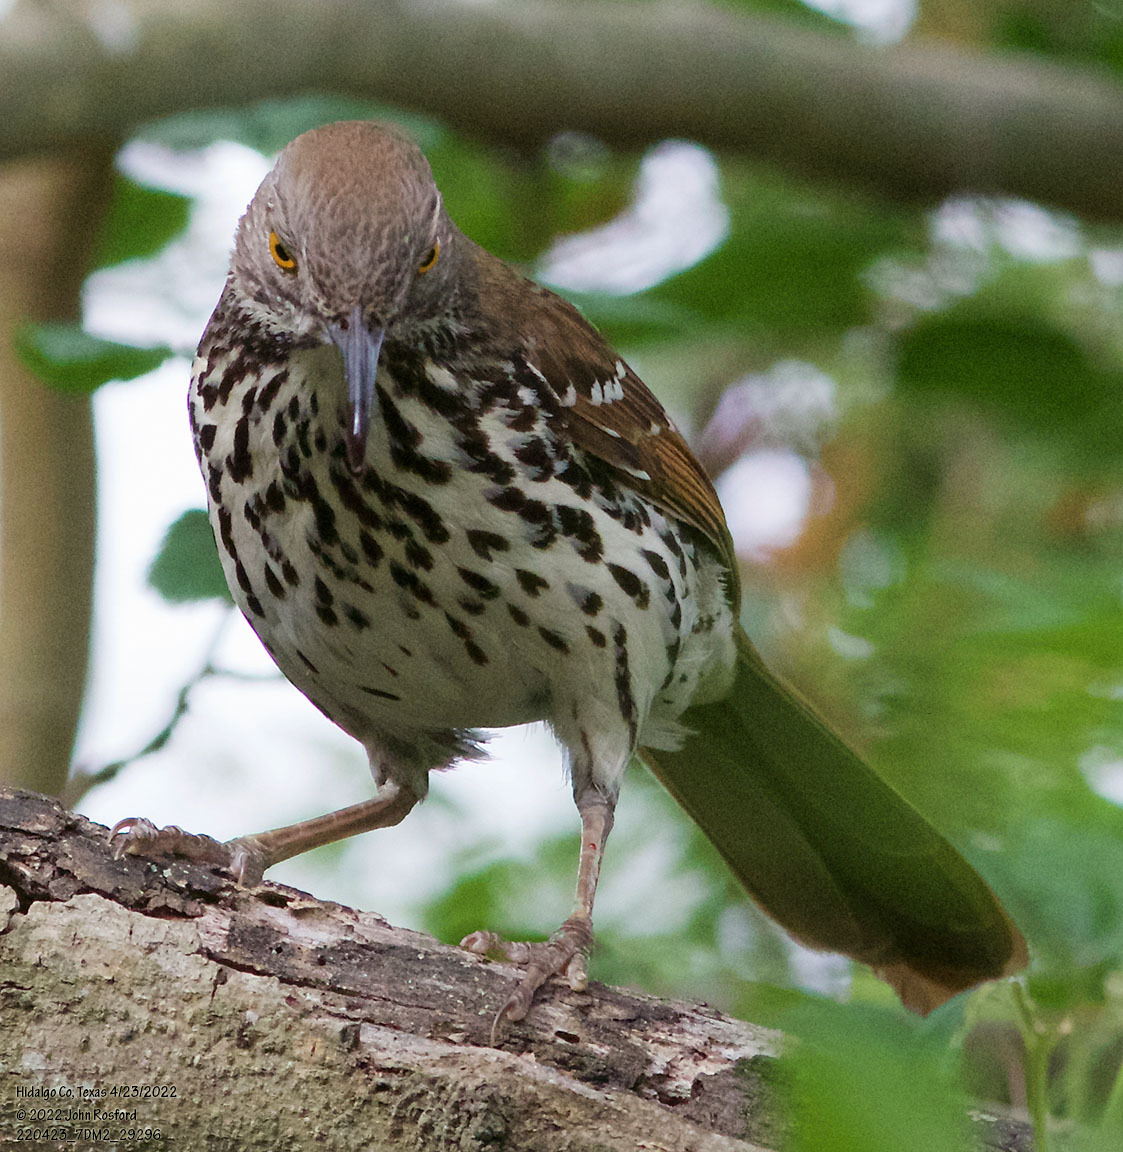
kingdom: Animalia
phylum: Chordata
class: Aves
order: Passeriformes
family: Mimidae
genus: Toxostoma
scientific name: Toxostoma longirostre
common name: Long-billed thrasher
